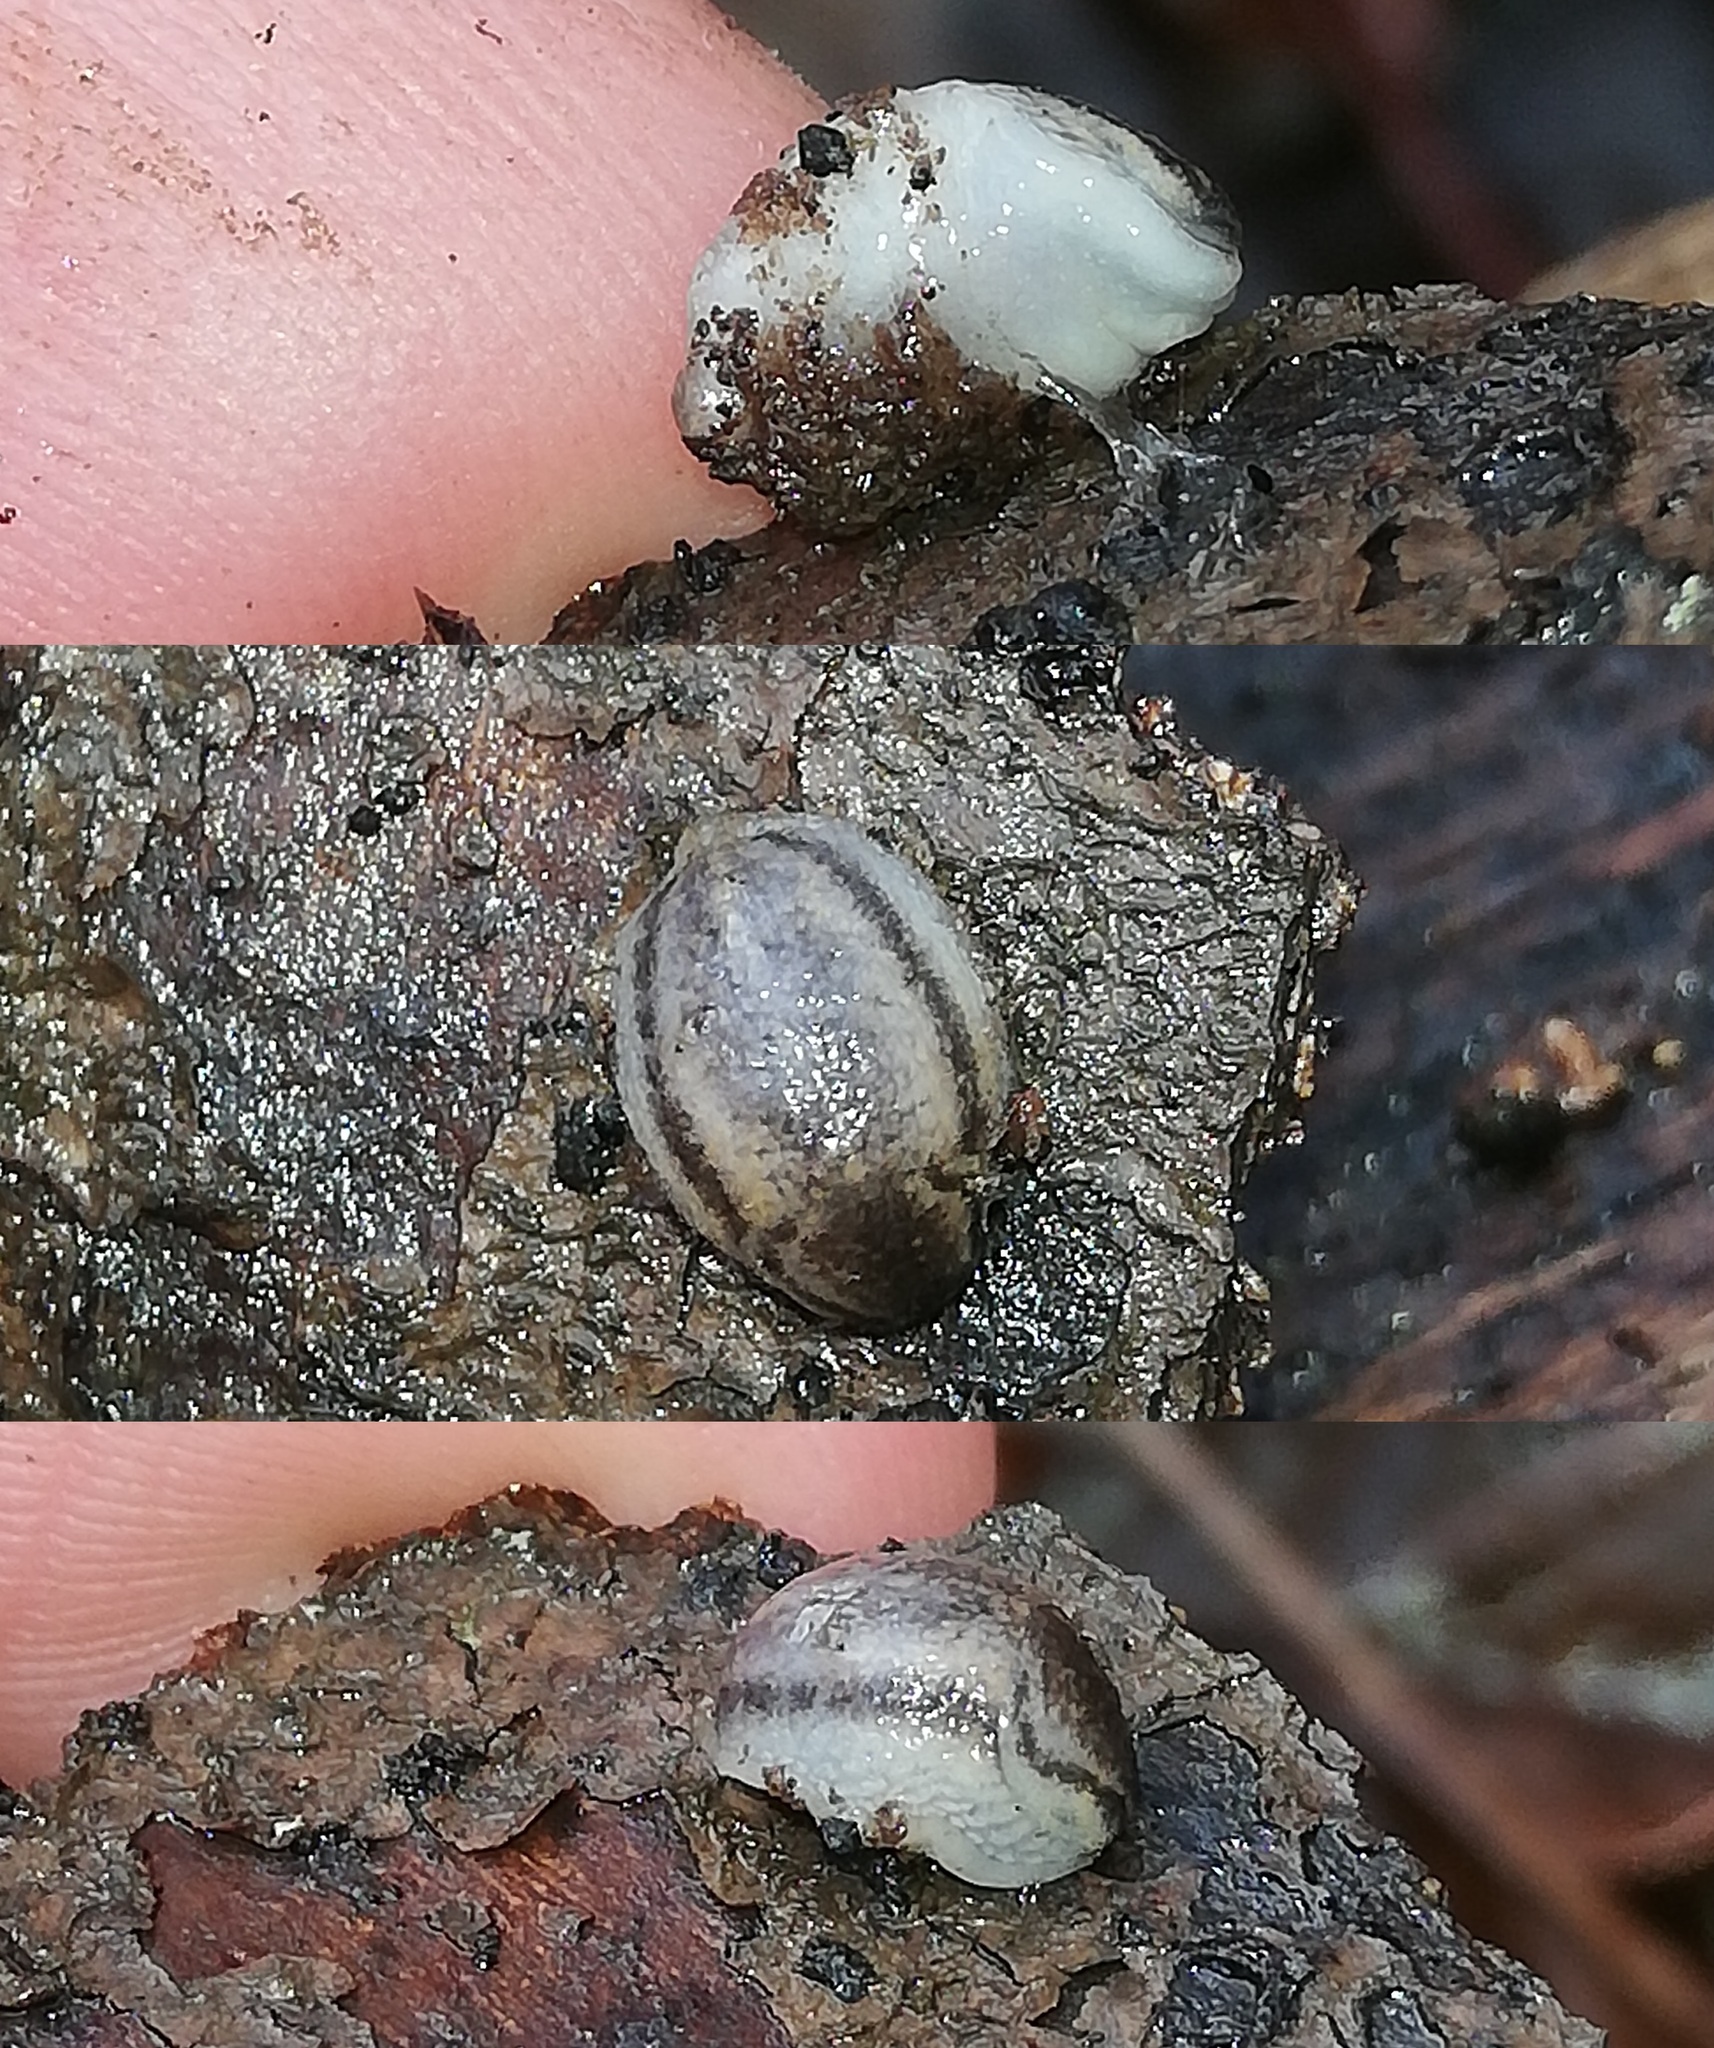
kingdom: Animalia
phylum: Mollusca
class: Gastropoda
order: Stylommatophora
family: Arionidae
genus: Arion
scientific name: Arion fasciatus
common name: Orange-banded arion
